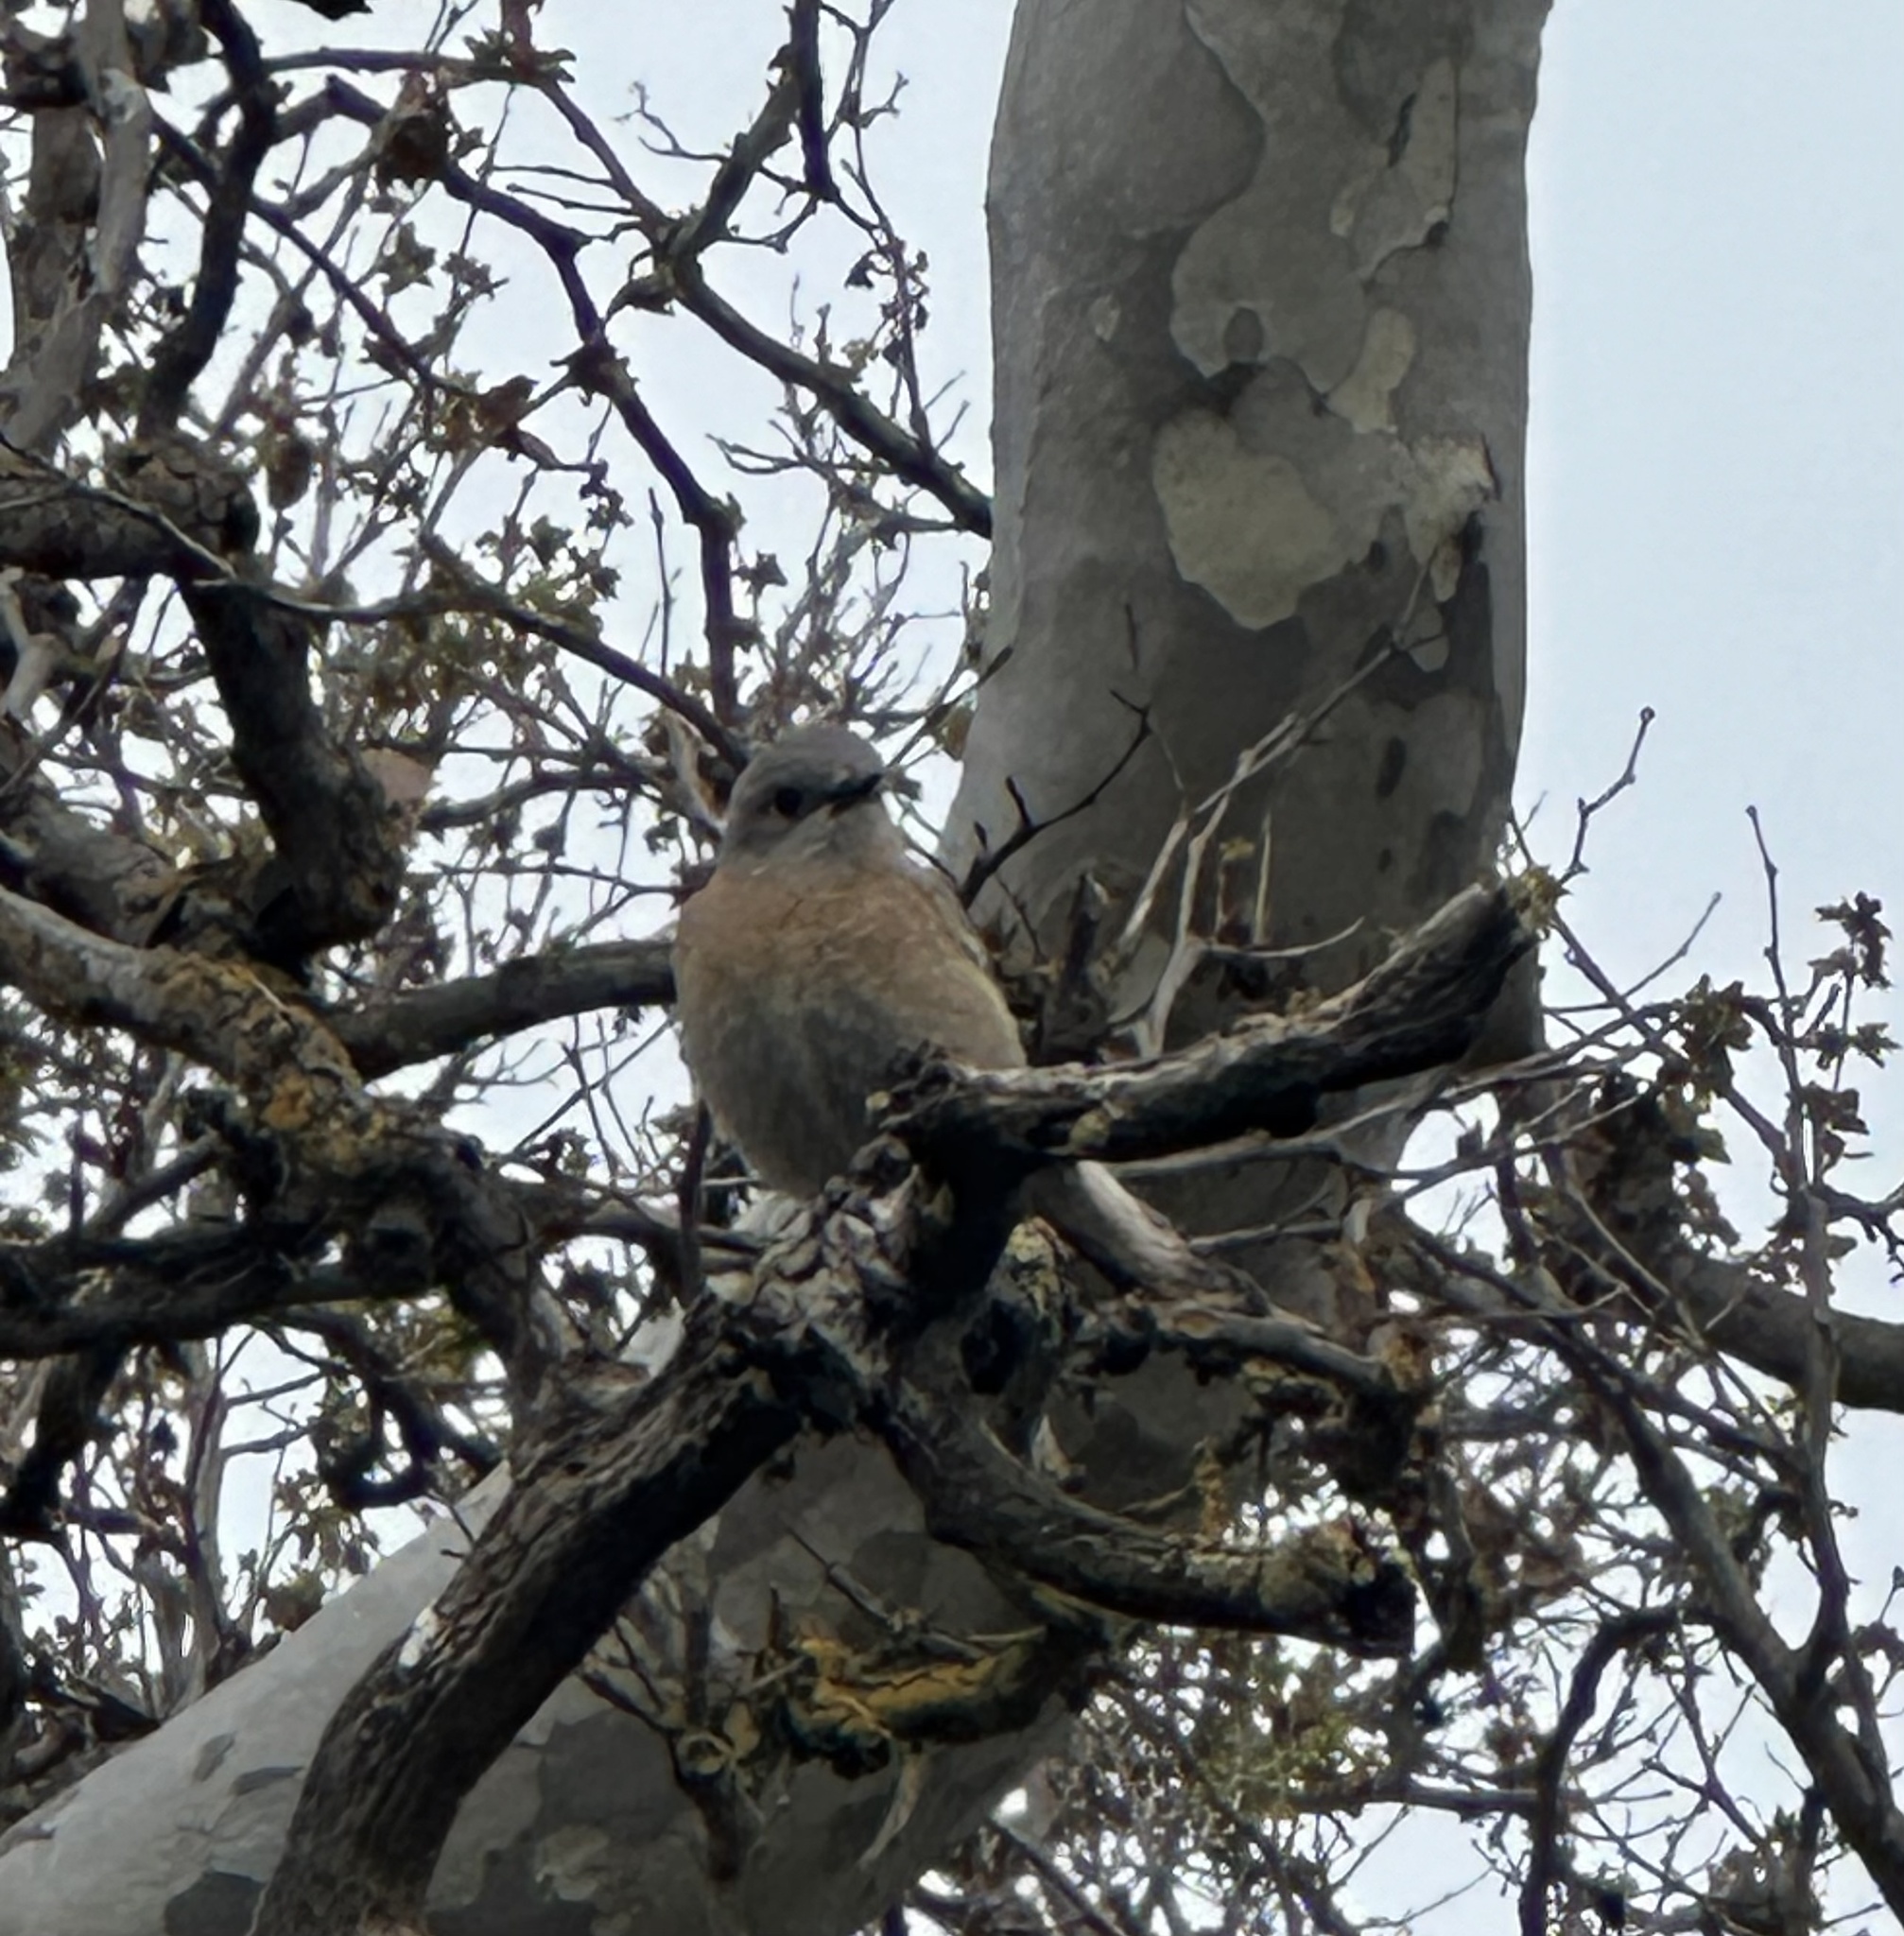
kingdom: Animalia
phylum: Chordata
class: Aves
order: Passeriformes
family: Turdidae
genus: Sialia
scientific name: Sialia mexicana
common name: Western bluebird
